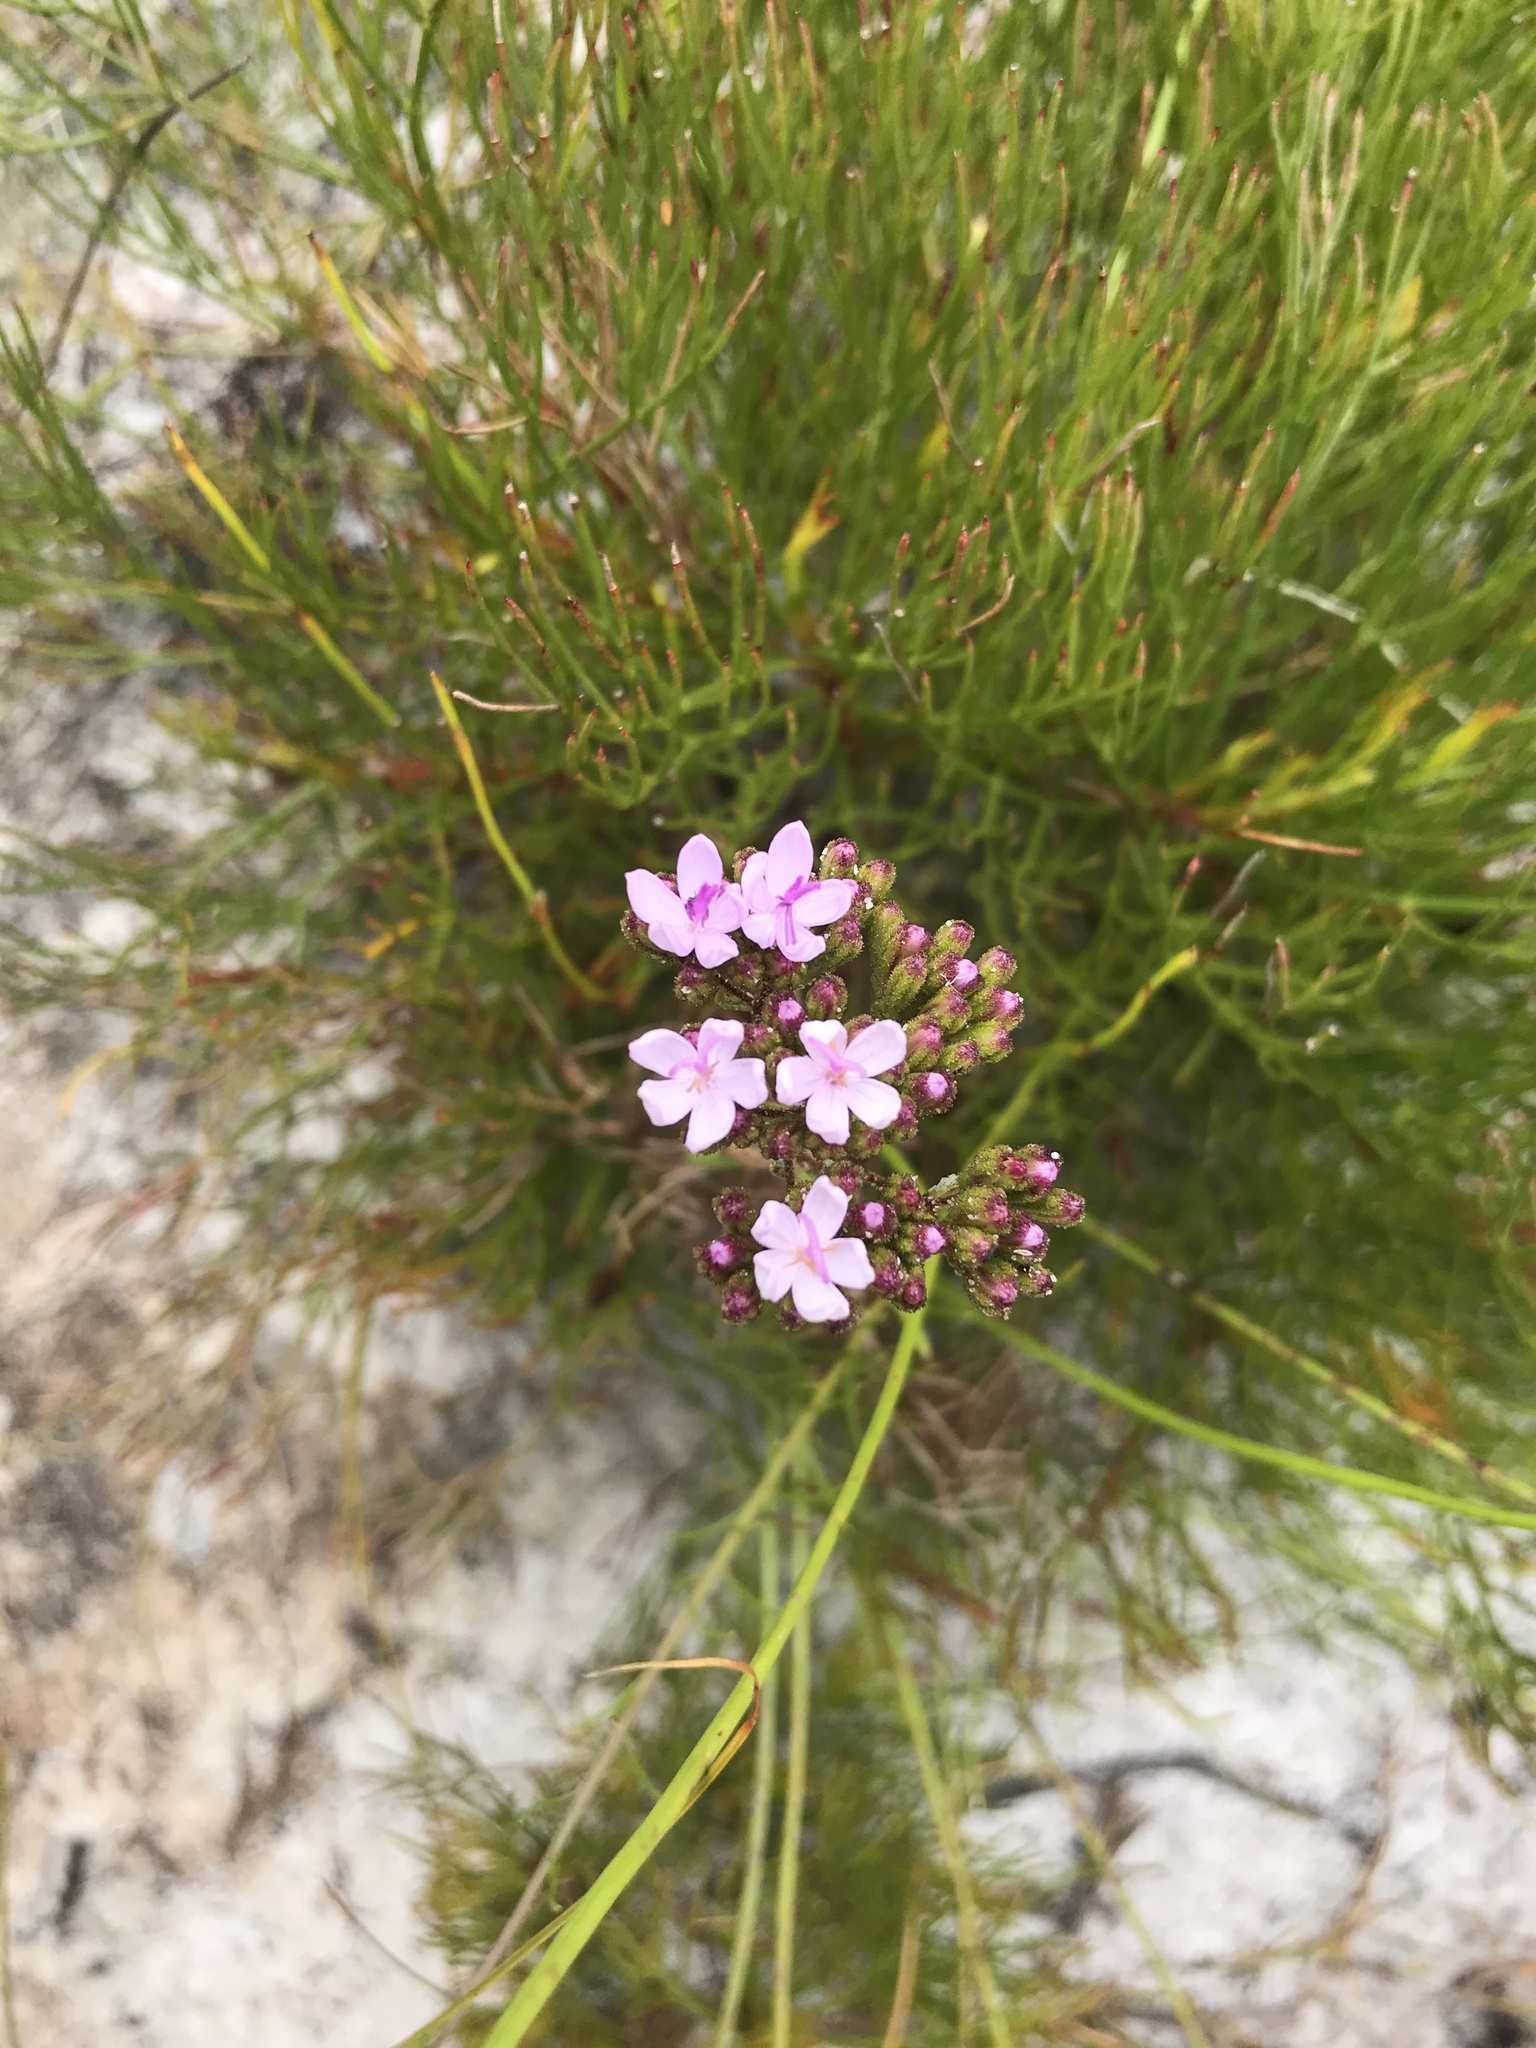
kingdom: Plantae
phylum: Tracheophyta
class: Magnoliopsida
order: Asterales
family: Asteraceae
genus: Corymbium
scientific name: Corymbium glabrum
